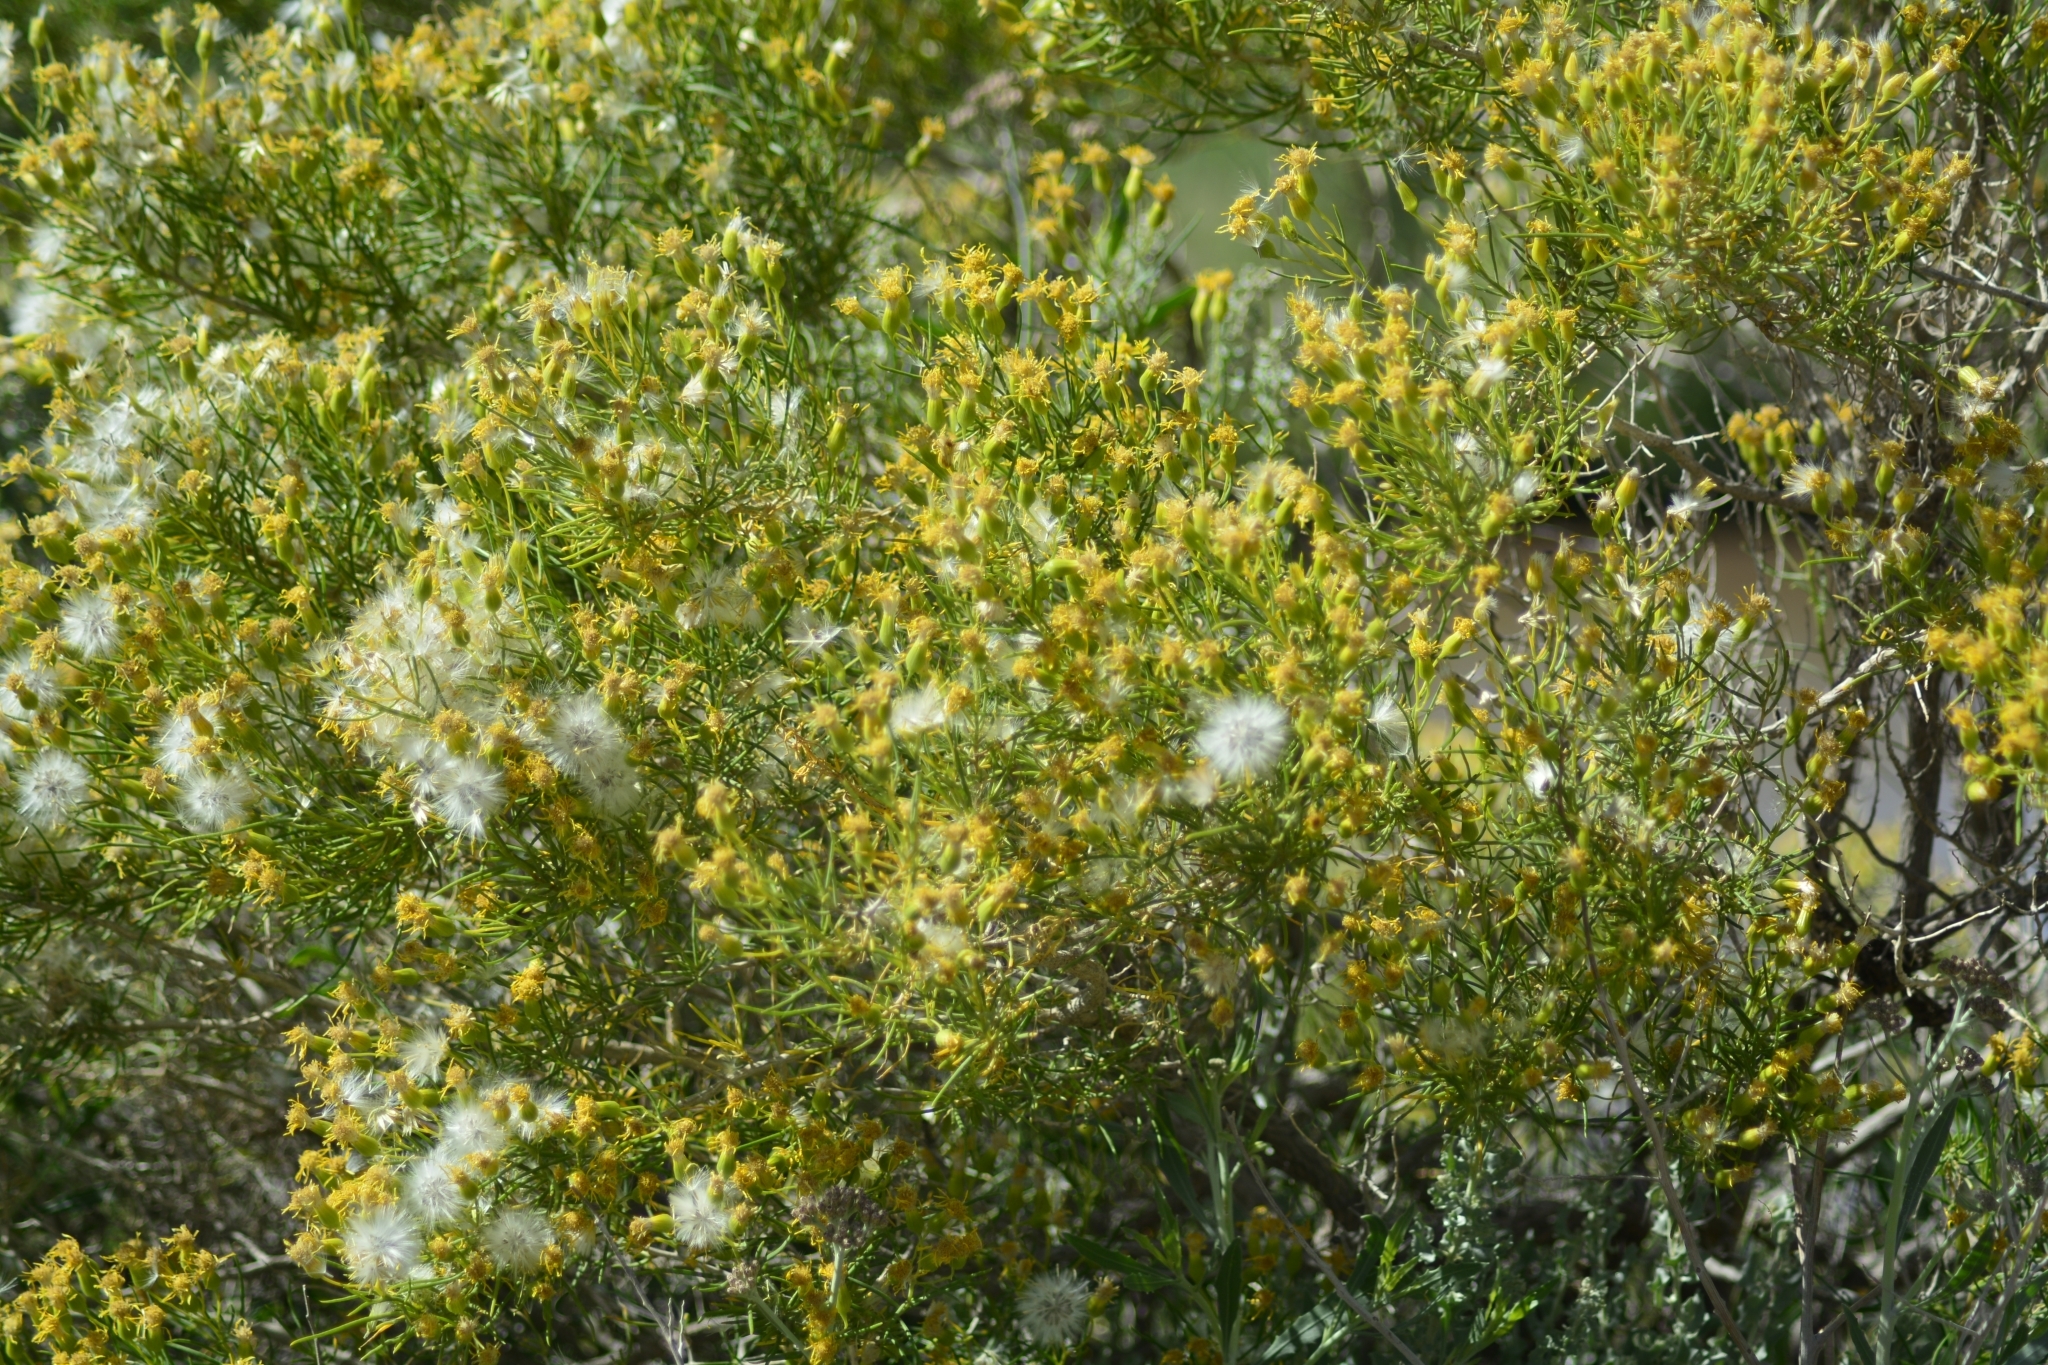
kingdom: Plantae
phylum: Tracheophyta
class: Magnoliopsida
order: Asterales
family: Asteraceae
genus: Senecio
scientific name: Senecio subulatus
